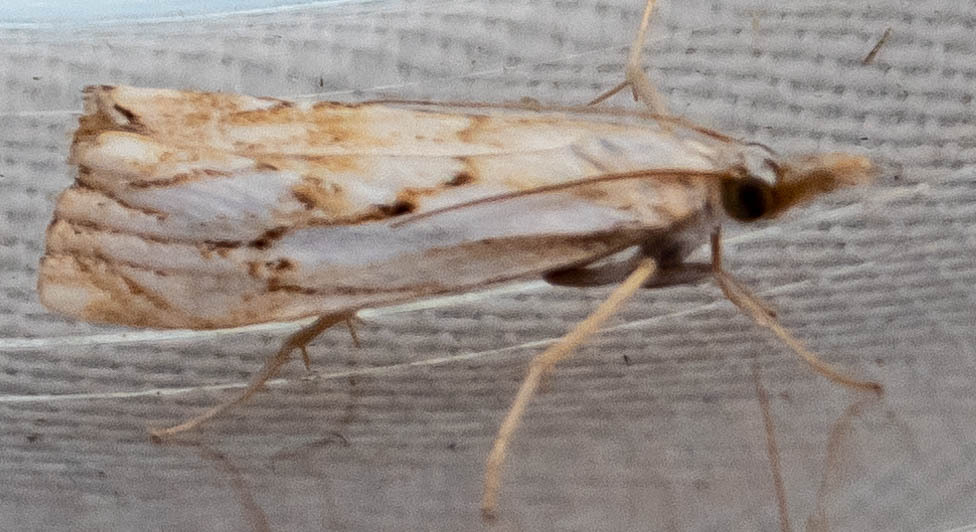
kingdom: Animalia
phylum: Arthropoda
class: Insecta
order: Lepidoptera
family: Crambidae
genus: Catoptria
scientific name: Catoptria falsella
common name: Chequered grass-veneer
